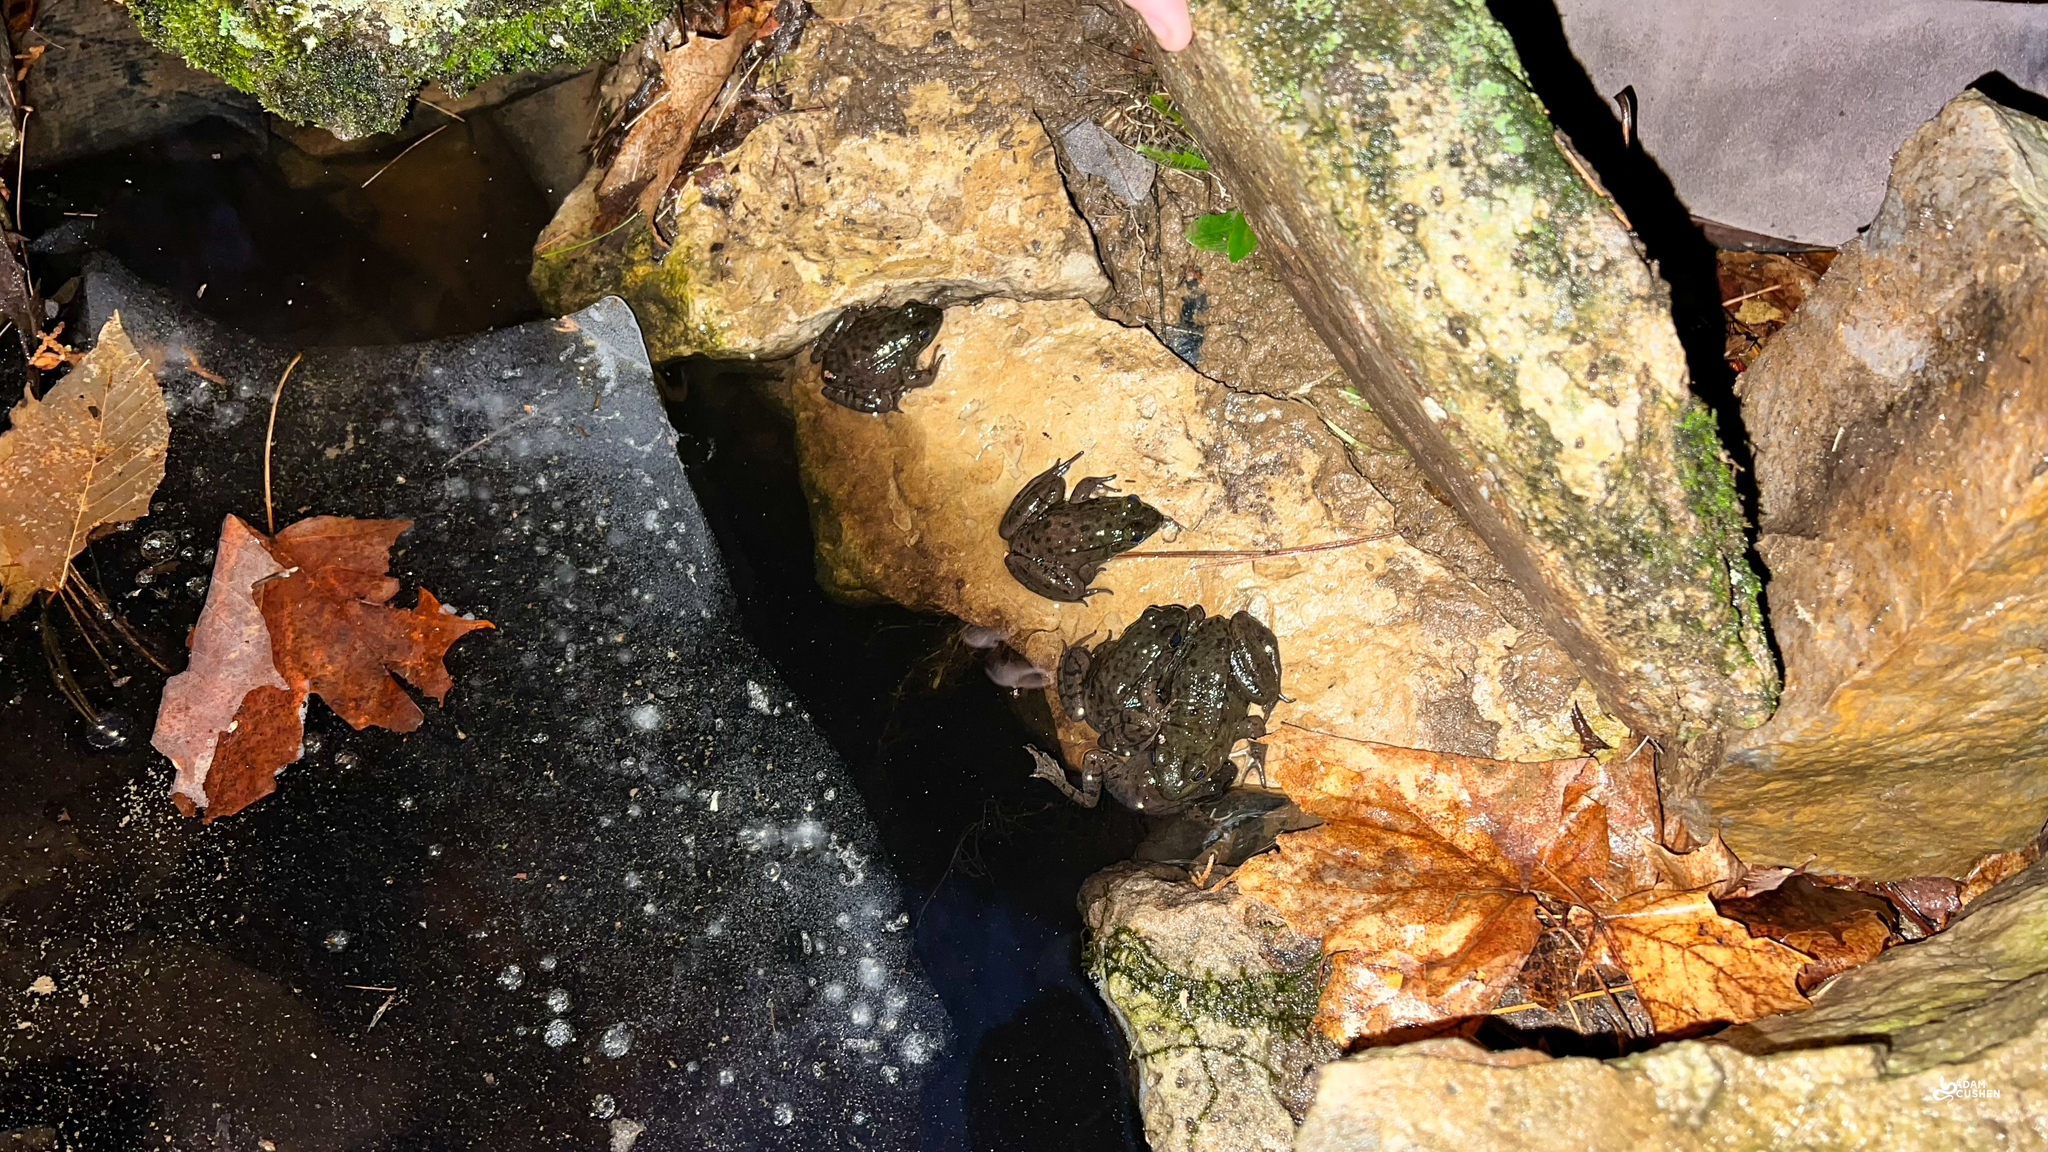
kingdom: Animalia
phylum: Chordata
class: Amphibia
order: Anura
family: Ranidae
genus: Lithobates
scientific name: Lithobates clamitans
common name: Green frog
